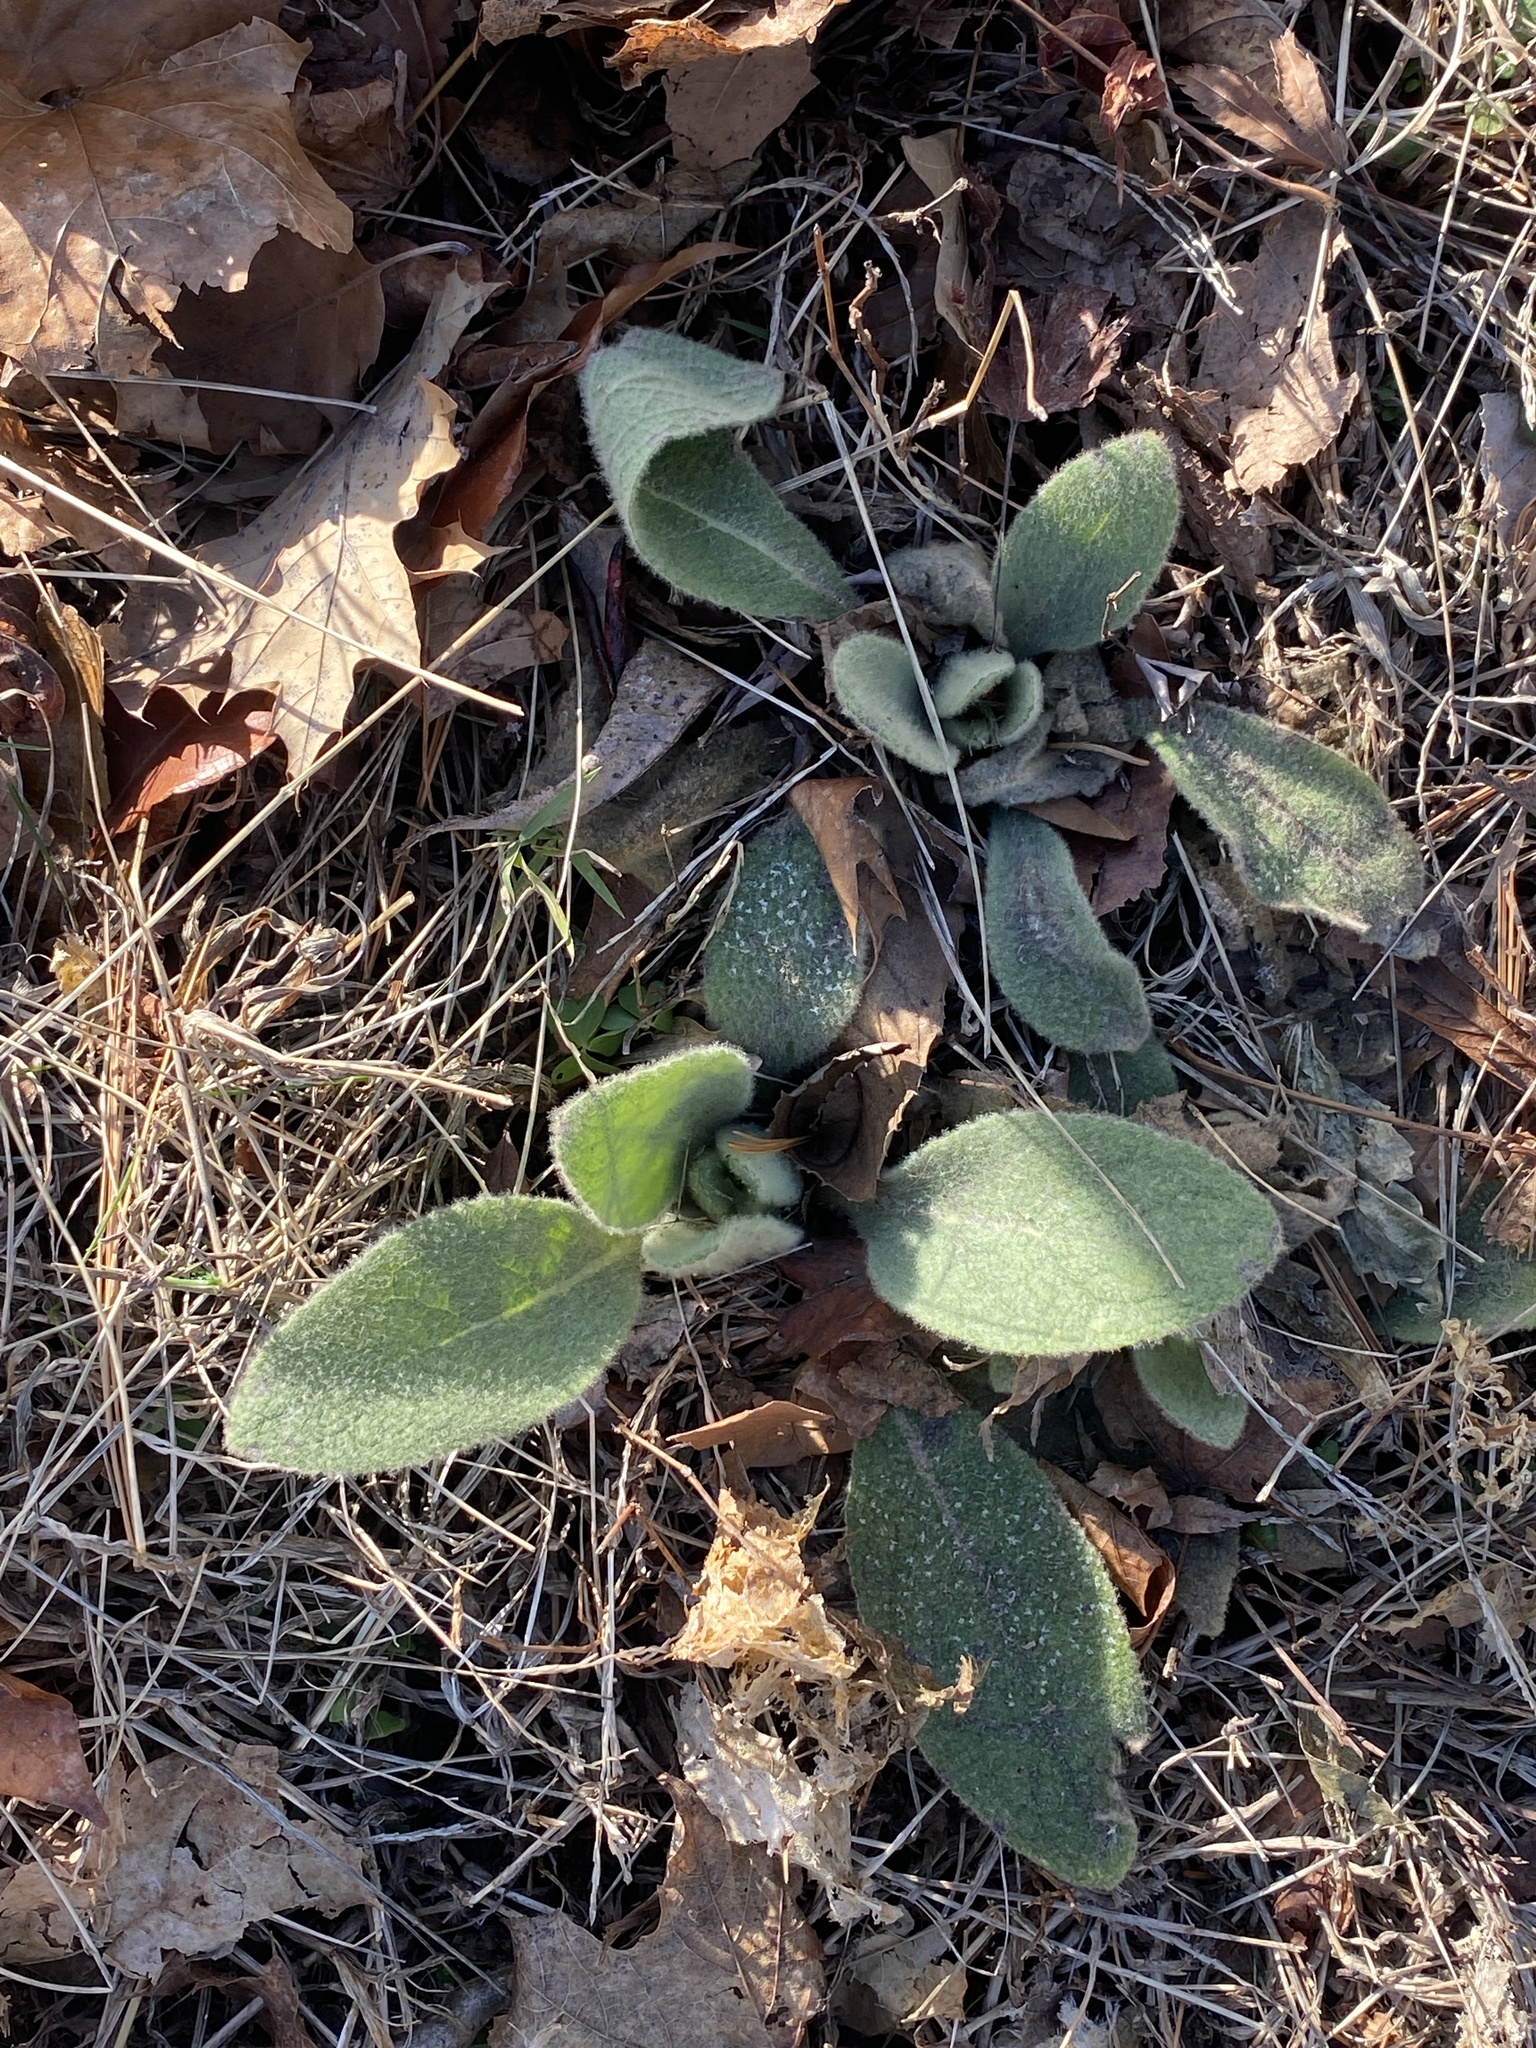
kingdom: Plantae
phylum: Tracheophyta
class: Magnoliopsida
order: Lamiales
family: Scrophulariaceae
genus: Verbascum
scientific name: Verbascum thapsus
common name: Common mullein
